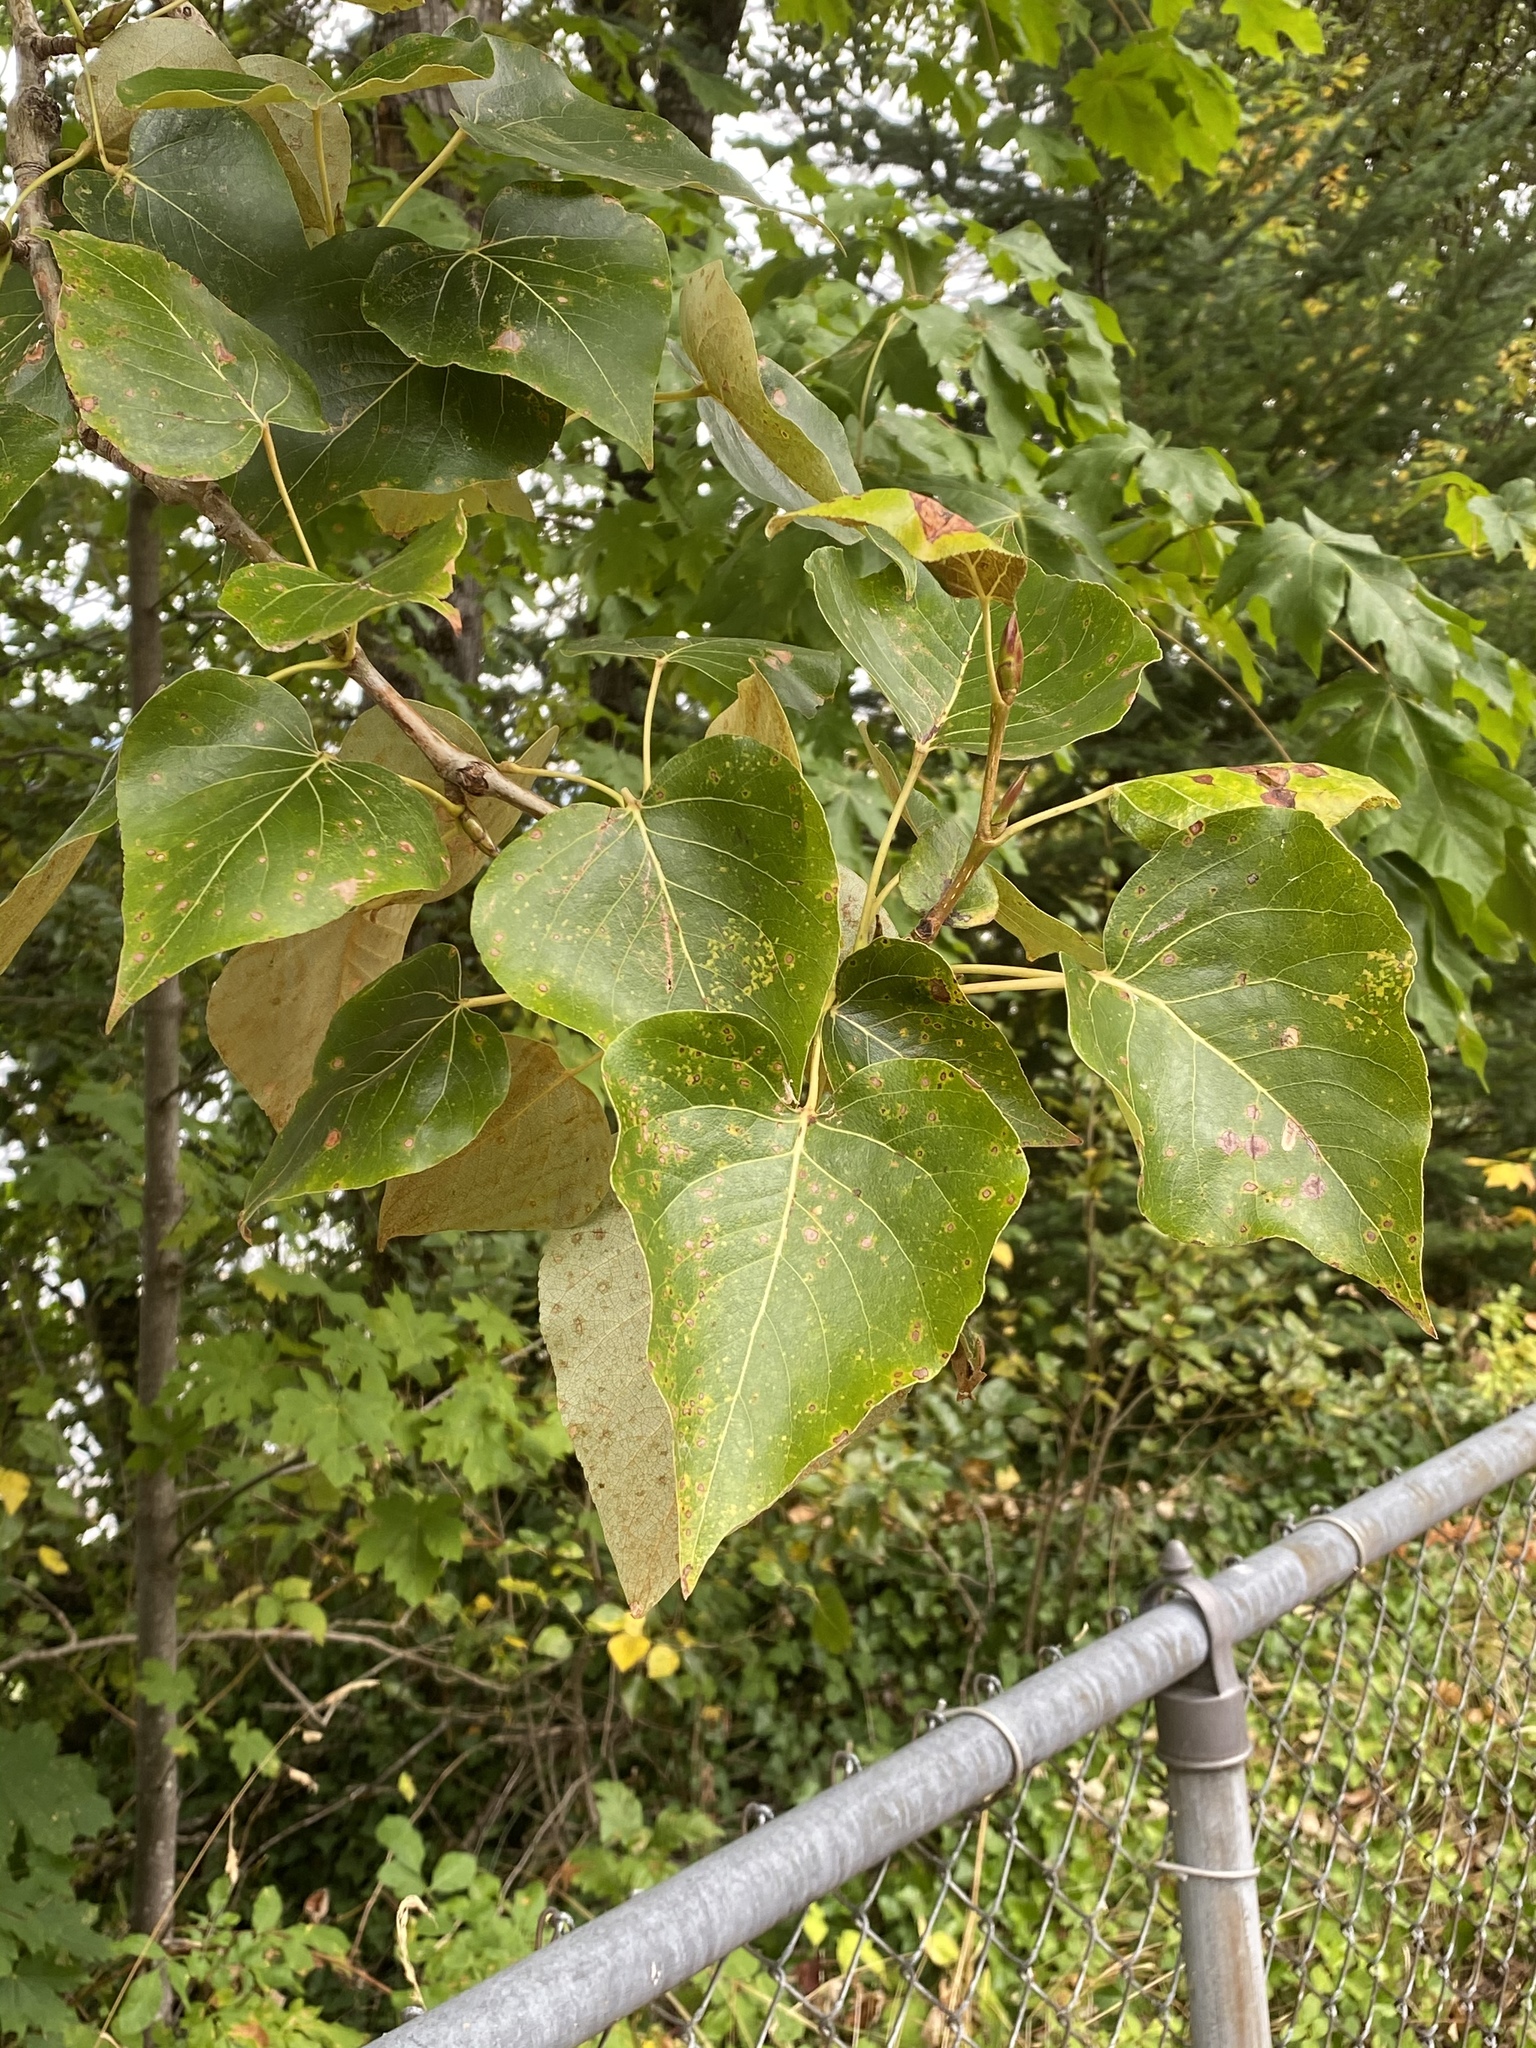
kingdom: Plantae
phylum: Tracheophyta
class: Magnoliopsida
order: Malpighiales
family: Salicaceae
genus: Populus
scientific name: Populus trichocarpa
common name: Black cottonwood
